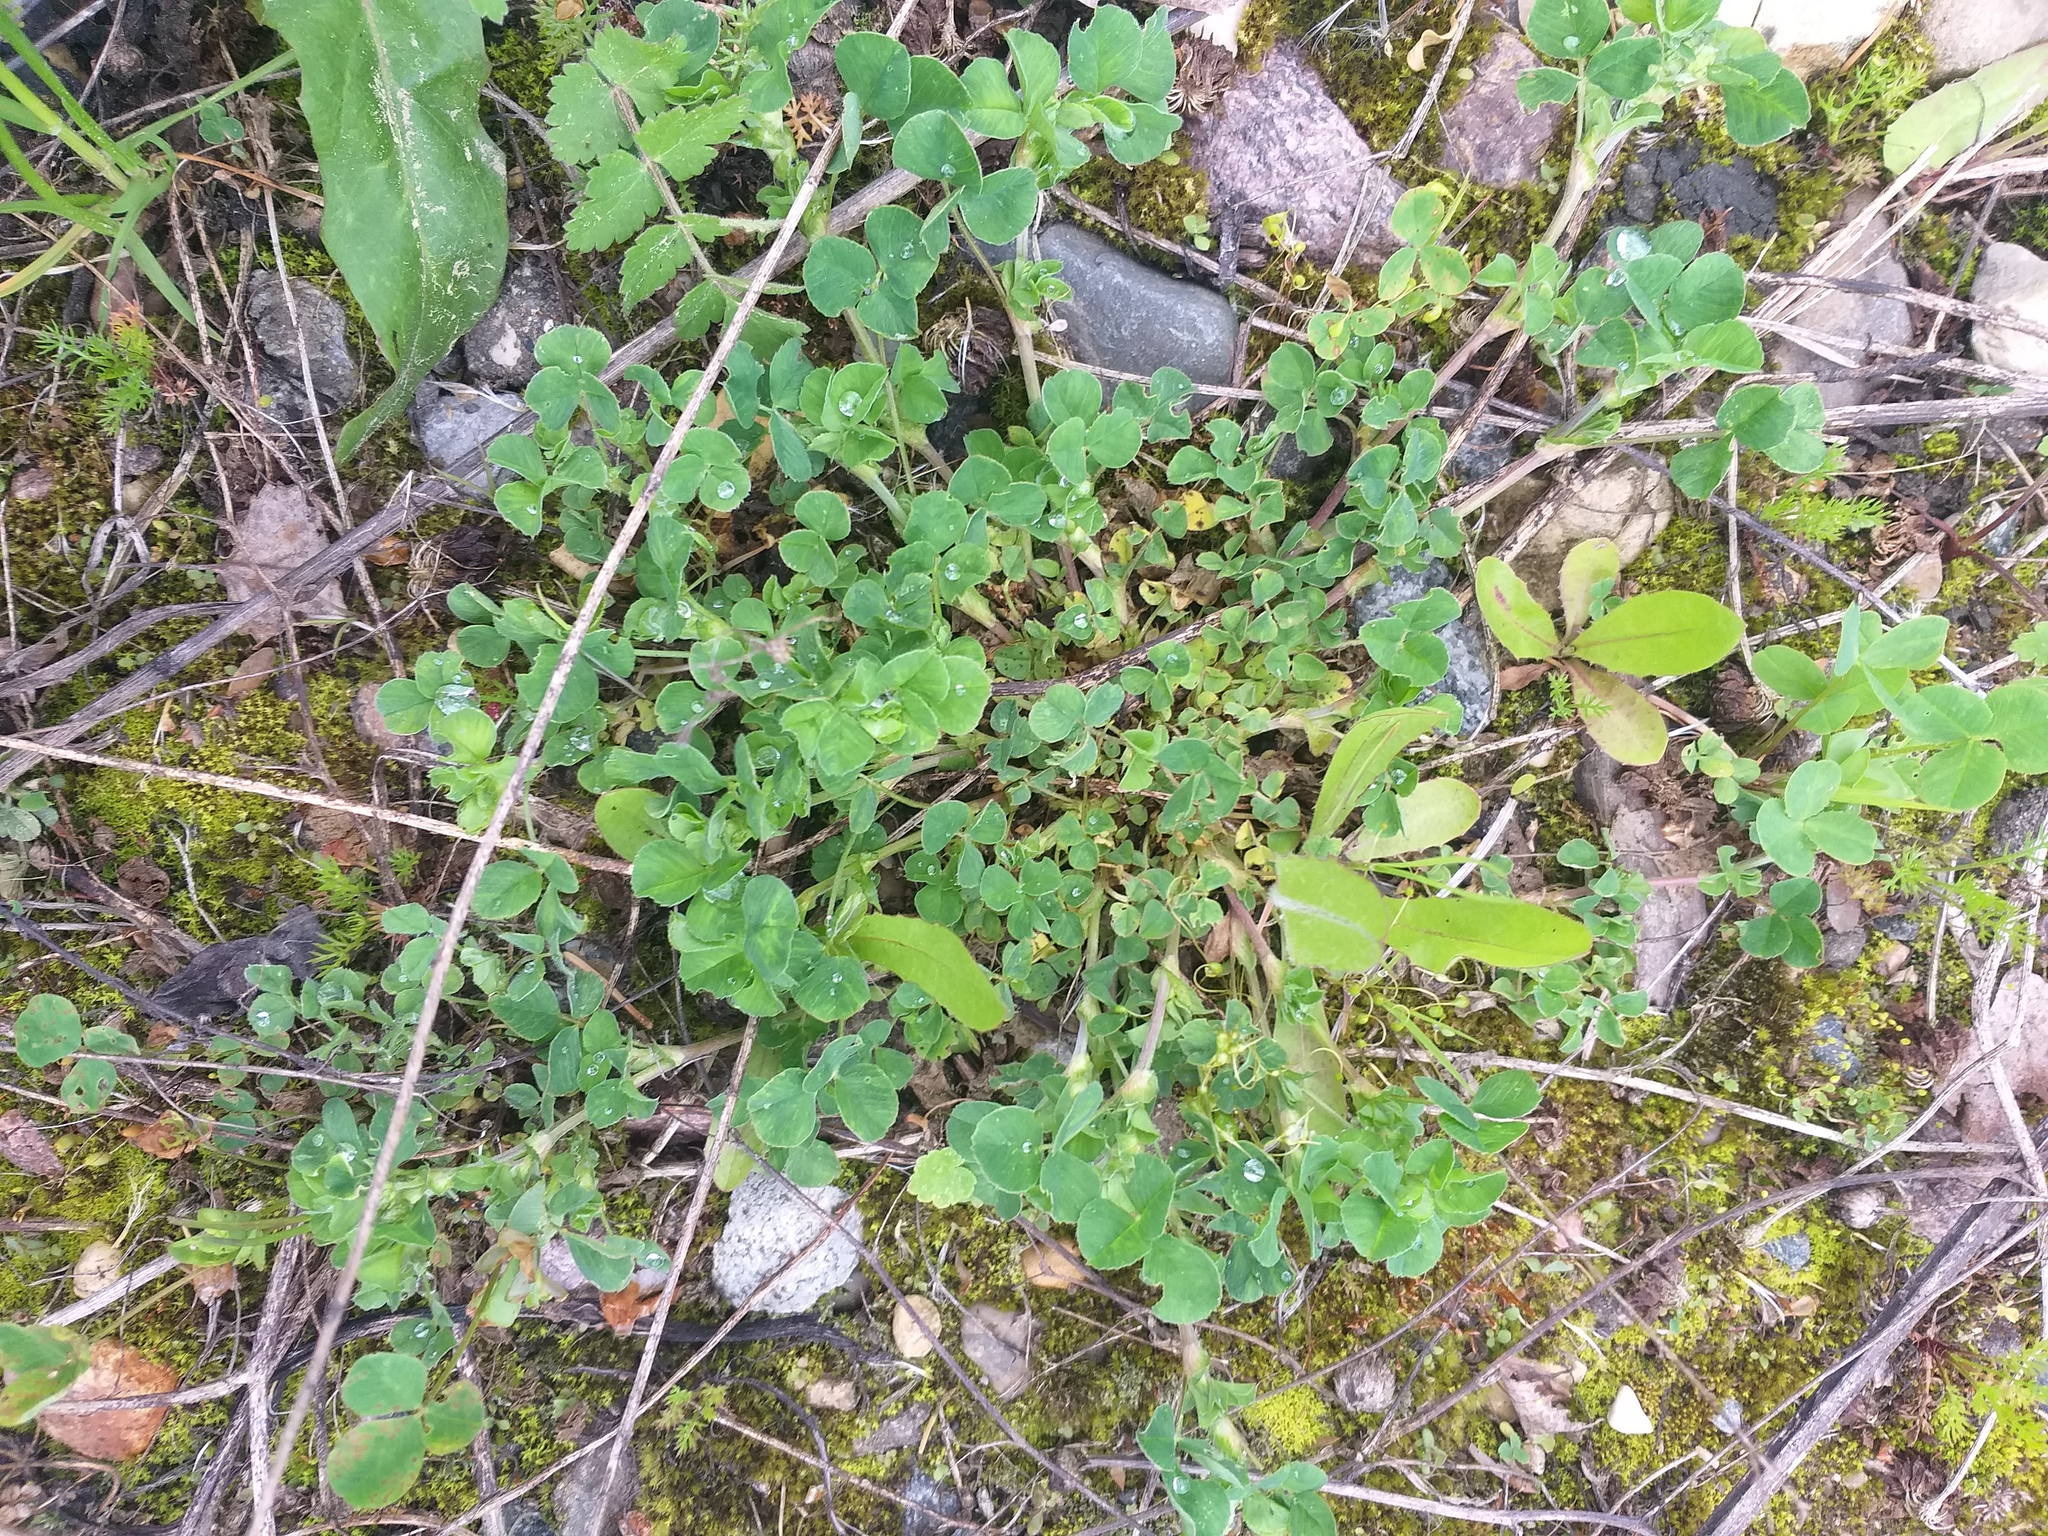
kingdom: Plantae
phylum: Tracheophyta
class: Magnoliopsida
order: Fabales
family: Fabaceae
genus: Medicago
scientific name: Medicago lupulina
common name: Black medick
